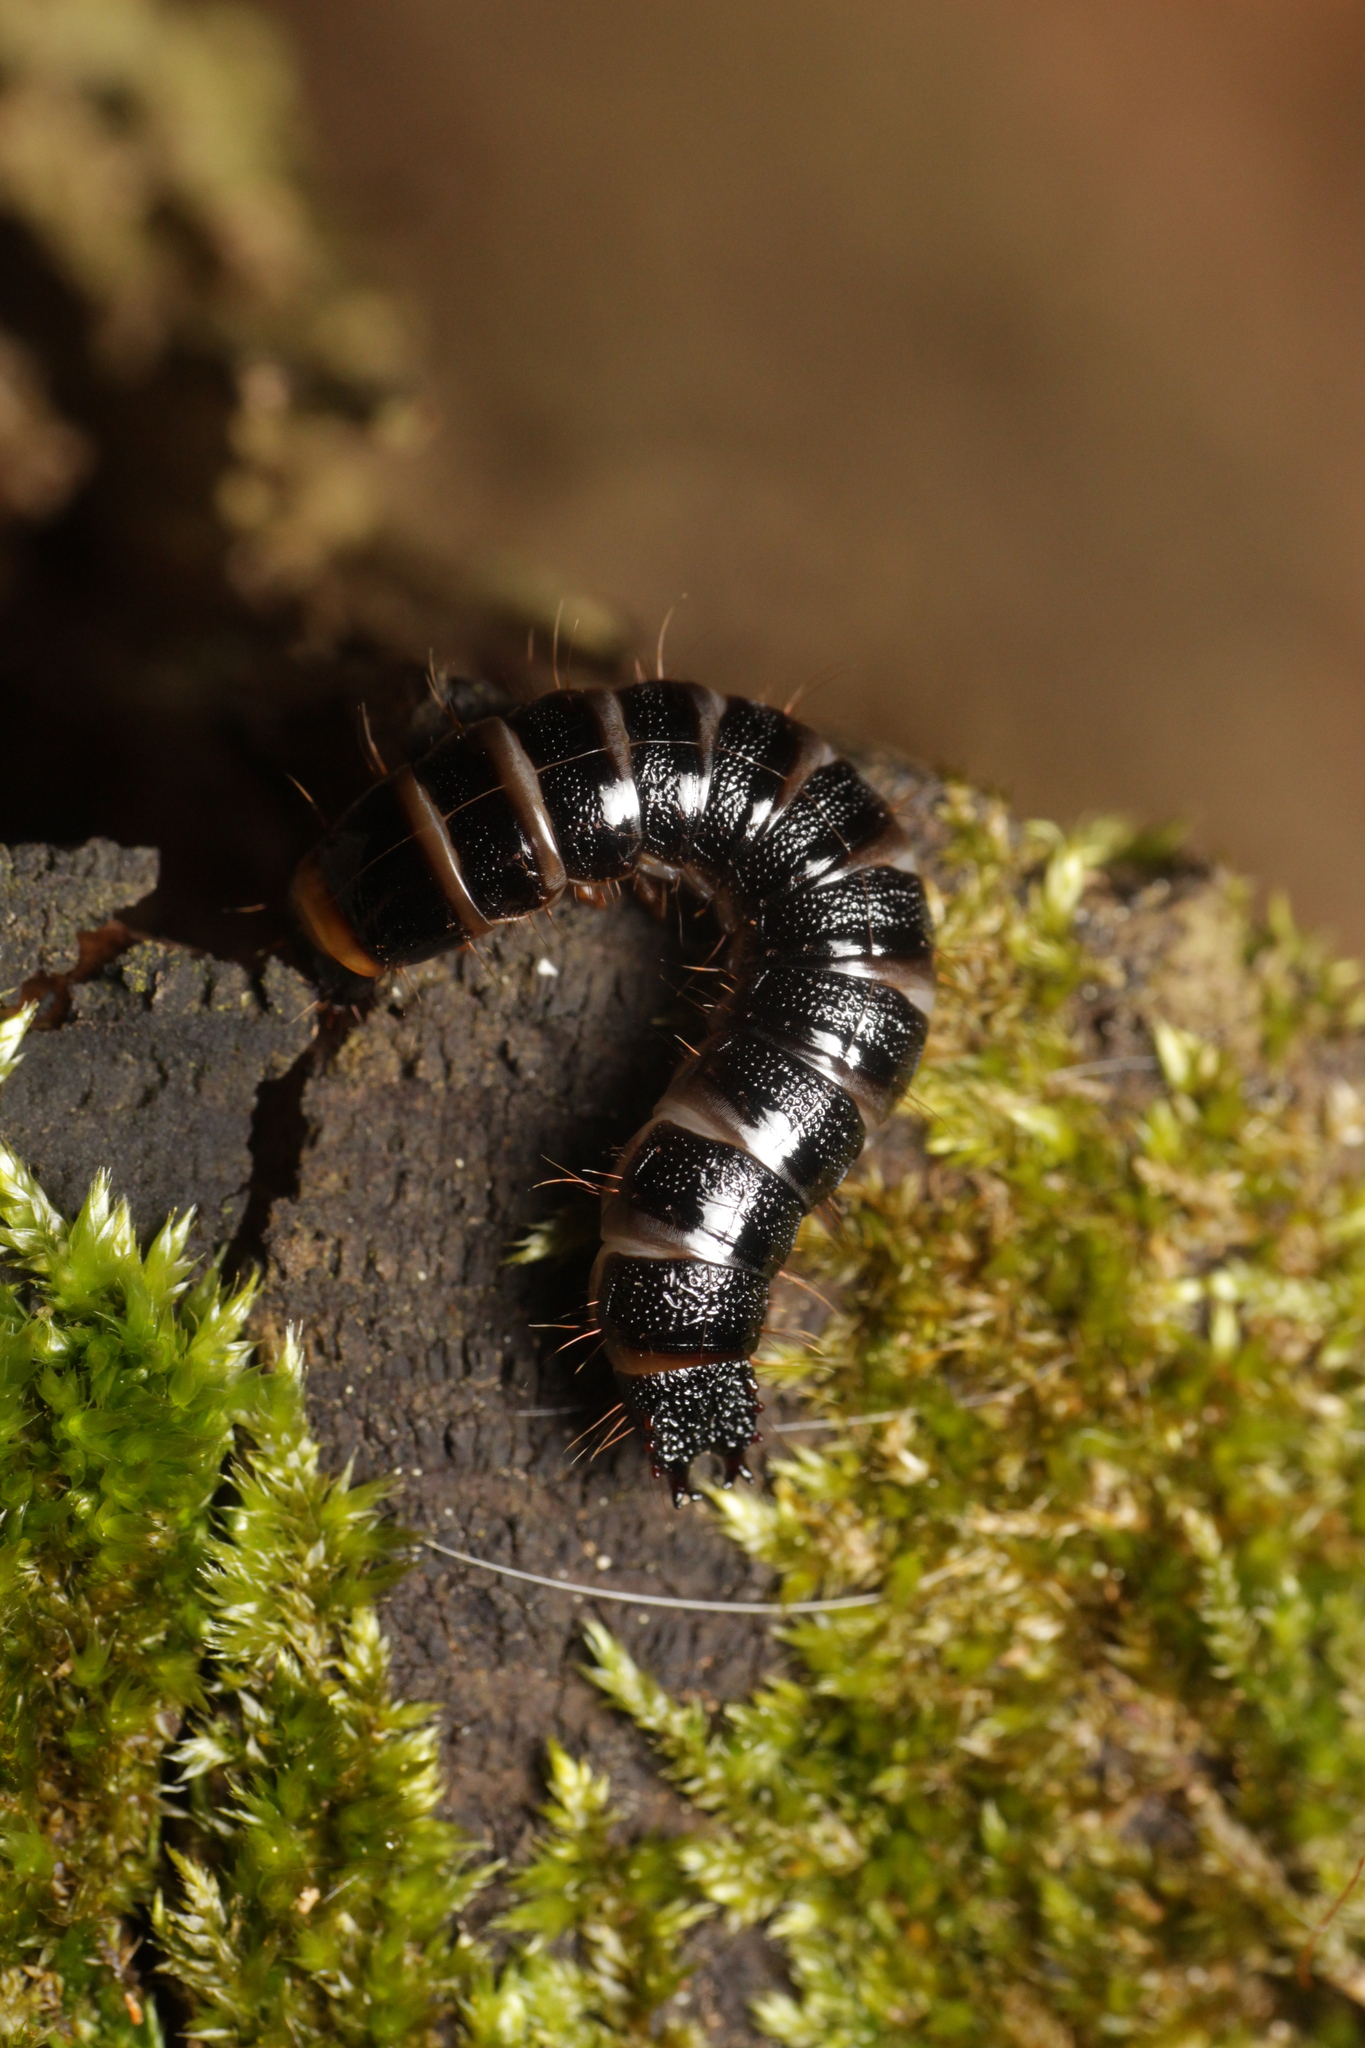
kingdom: Animalia
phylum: Arthropoda
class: Insecta
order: Coleoptera
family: Elateridae
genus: Stenagostus
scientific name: Stenagostus rhombeus
